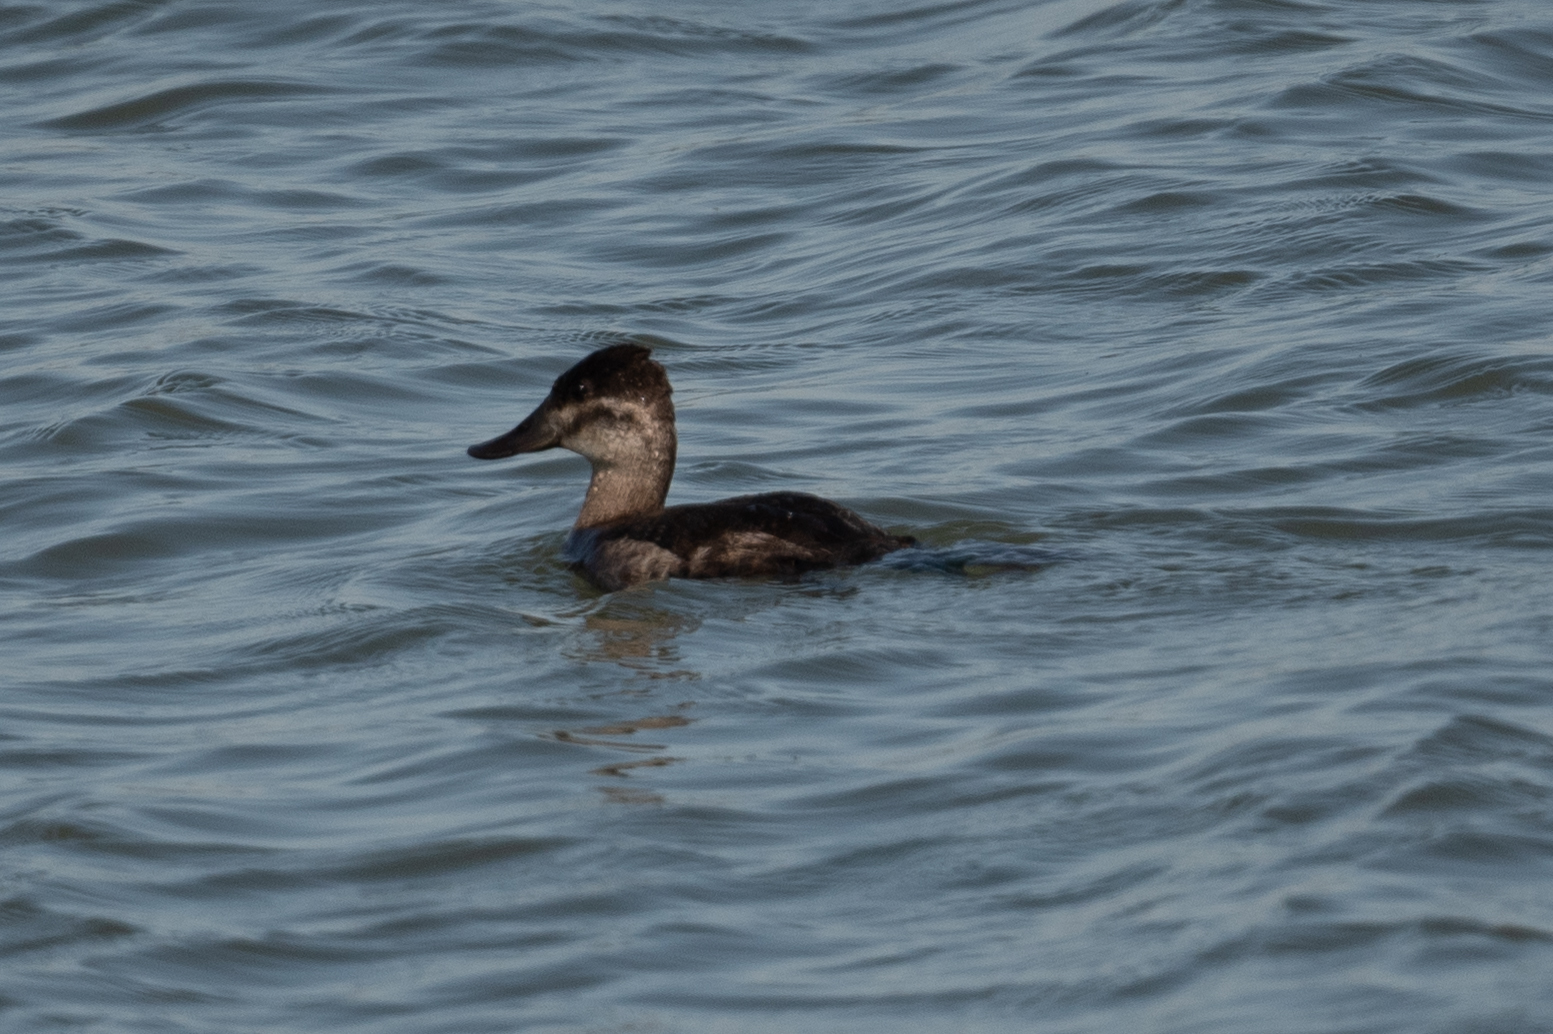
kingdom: Animalia
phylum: Chordata
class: Aves
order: Anseriformes
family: Anatidae
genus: Oxyura
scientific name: Oxyura jamaicensis
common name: Ruddy duck
